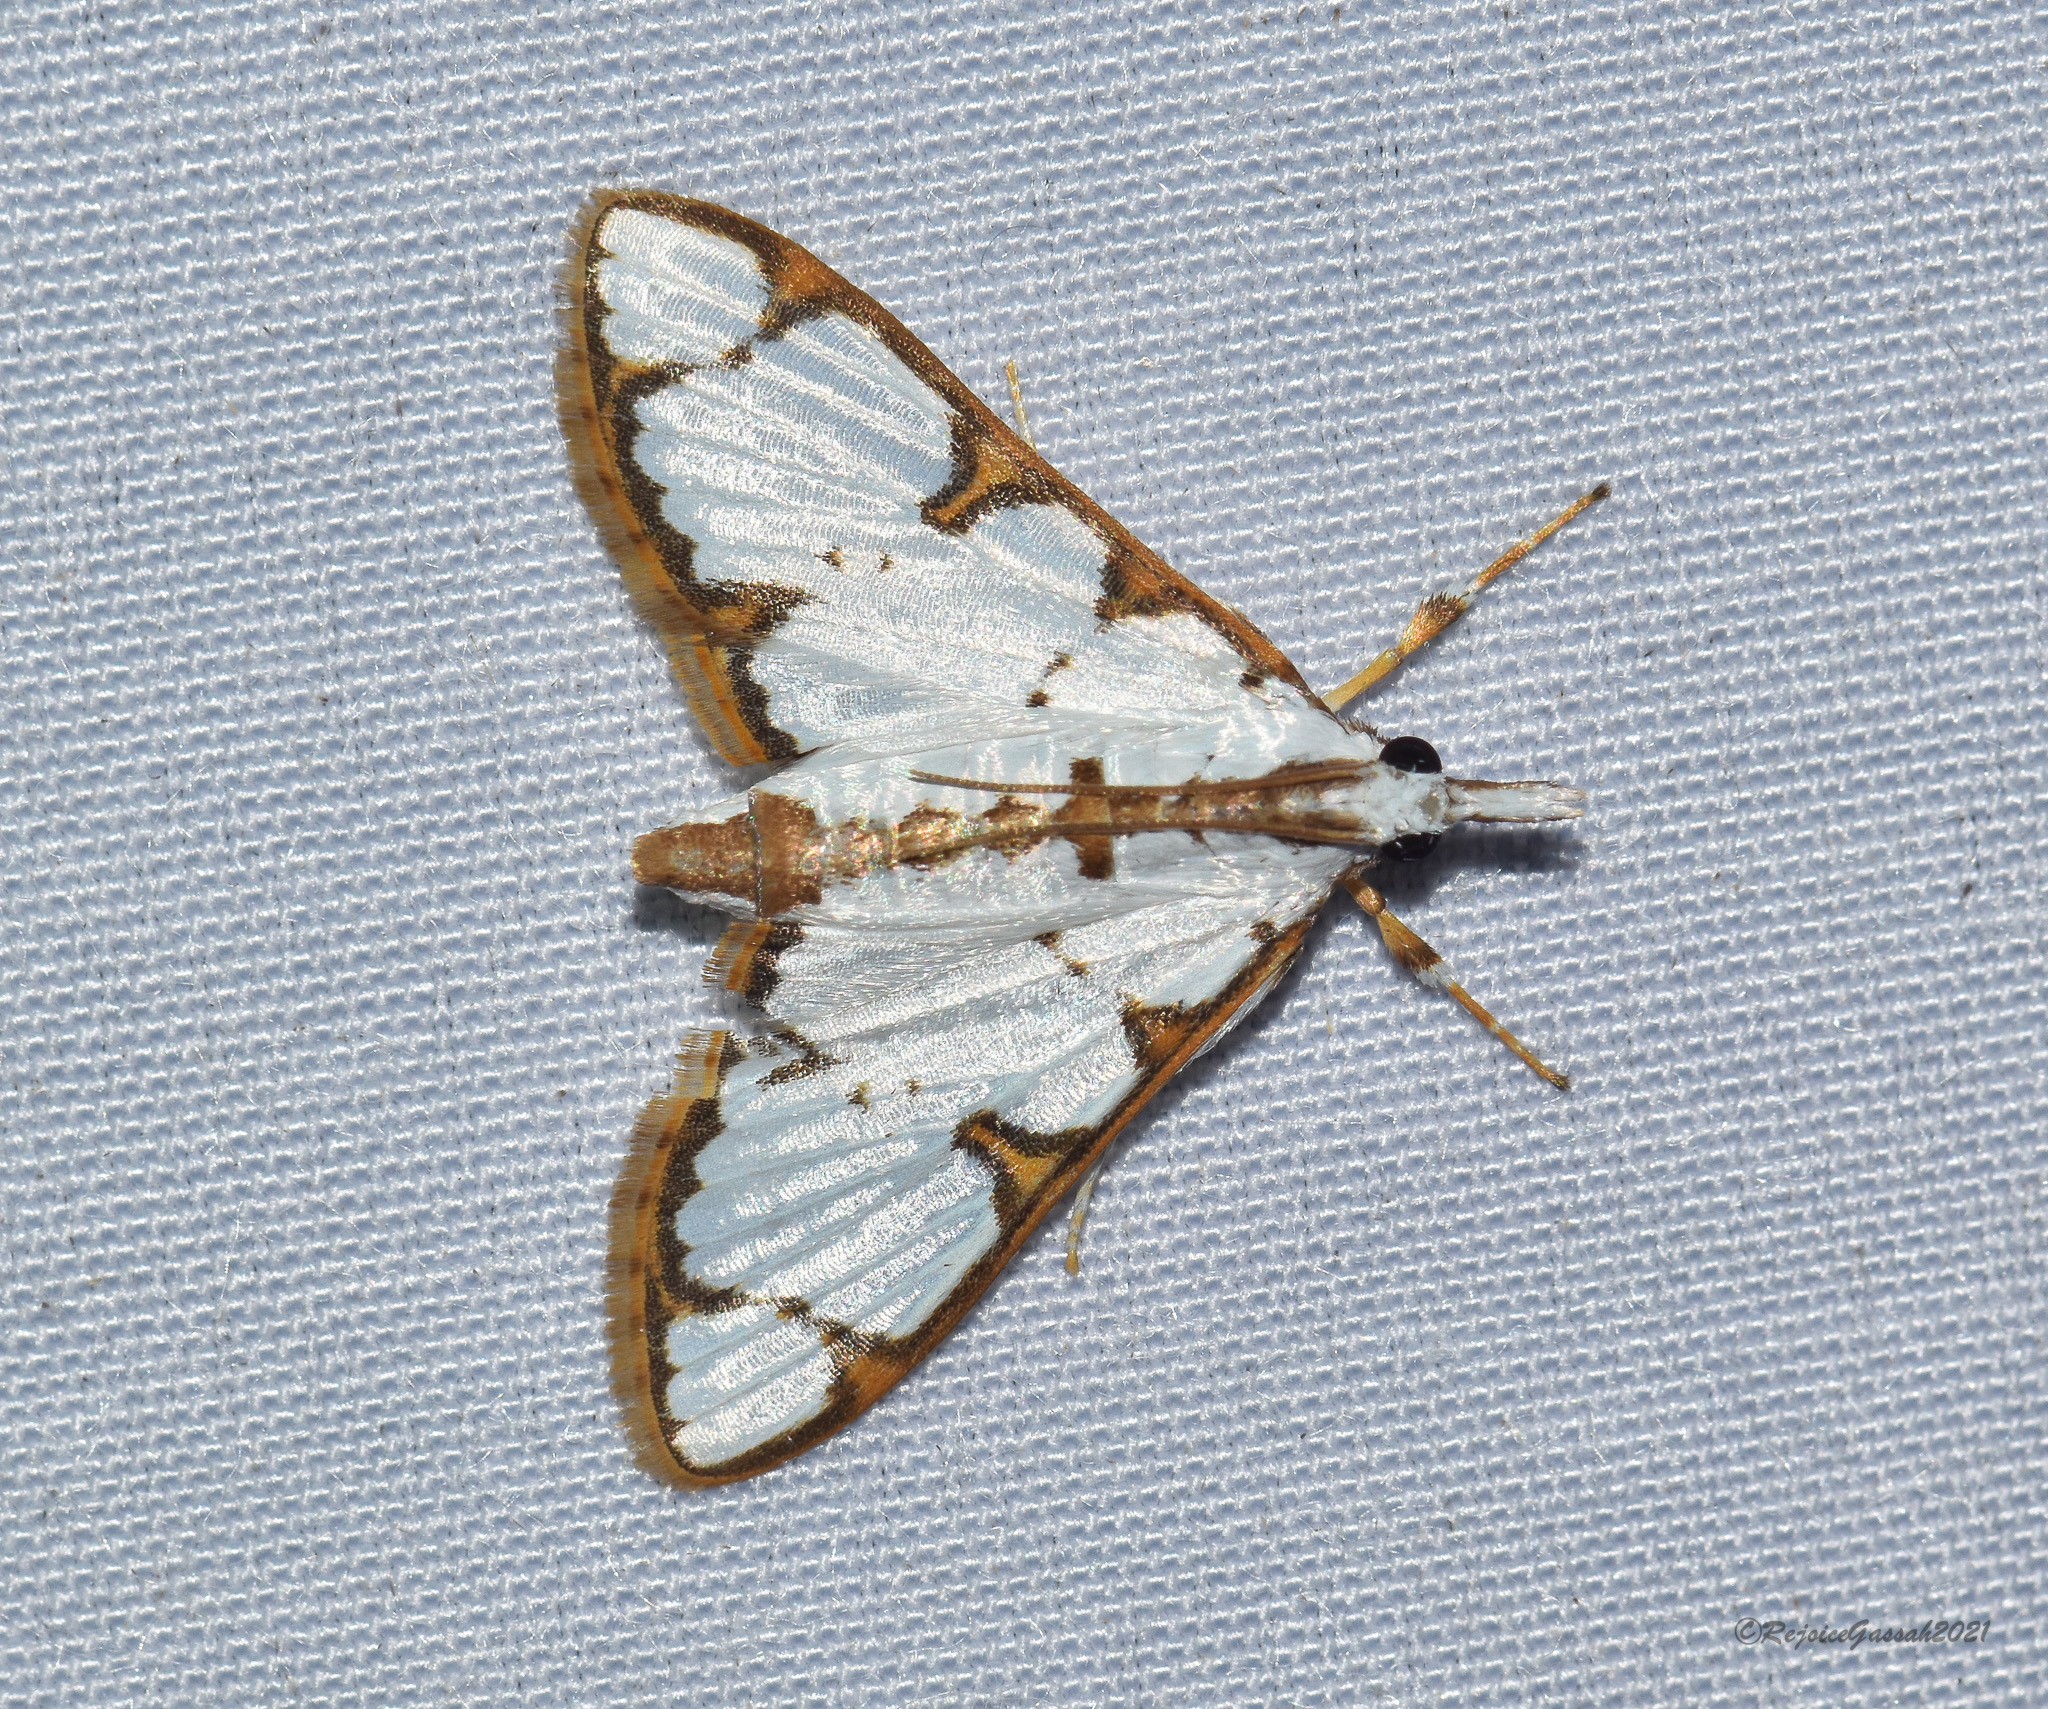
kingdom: Animalia
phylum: Arthropoda
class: Insecta
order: Lepidoptera
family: Crambidae
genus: Cirrhochrista
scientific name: Cirrhochrista brizoalis
